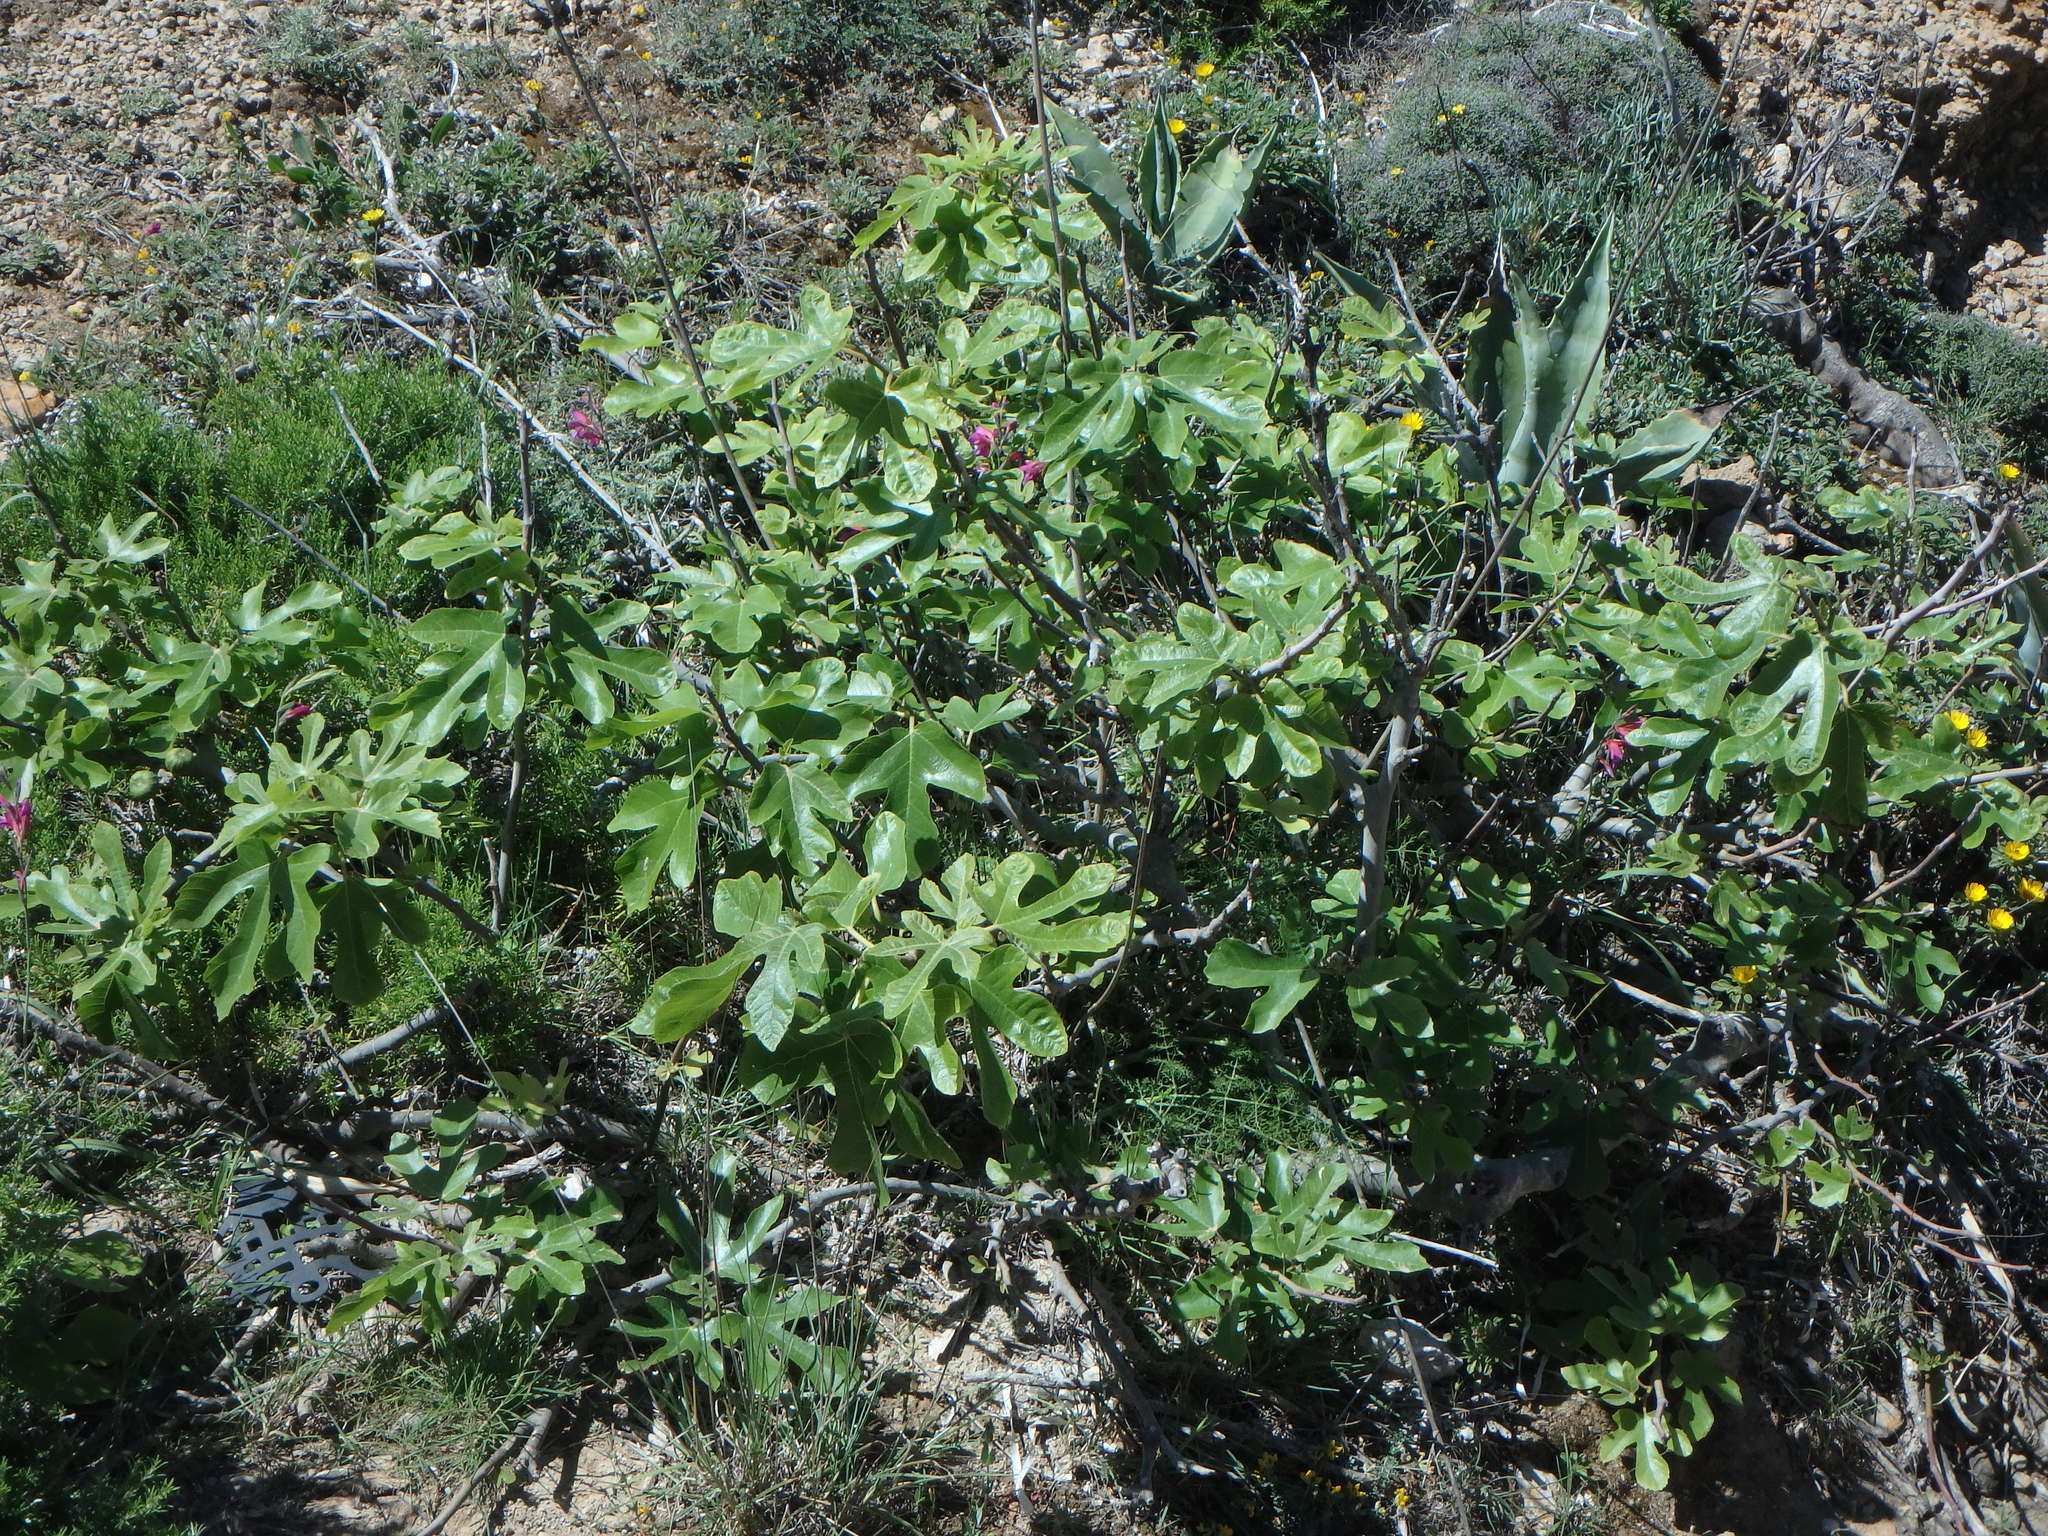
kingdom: Plantae
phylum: Tracheophyta
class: Magnoliopsida
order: Rosales
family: Moraceae
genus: Ficus
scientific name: Ficus carica
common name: Fig
